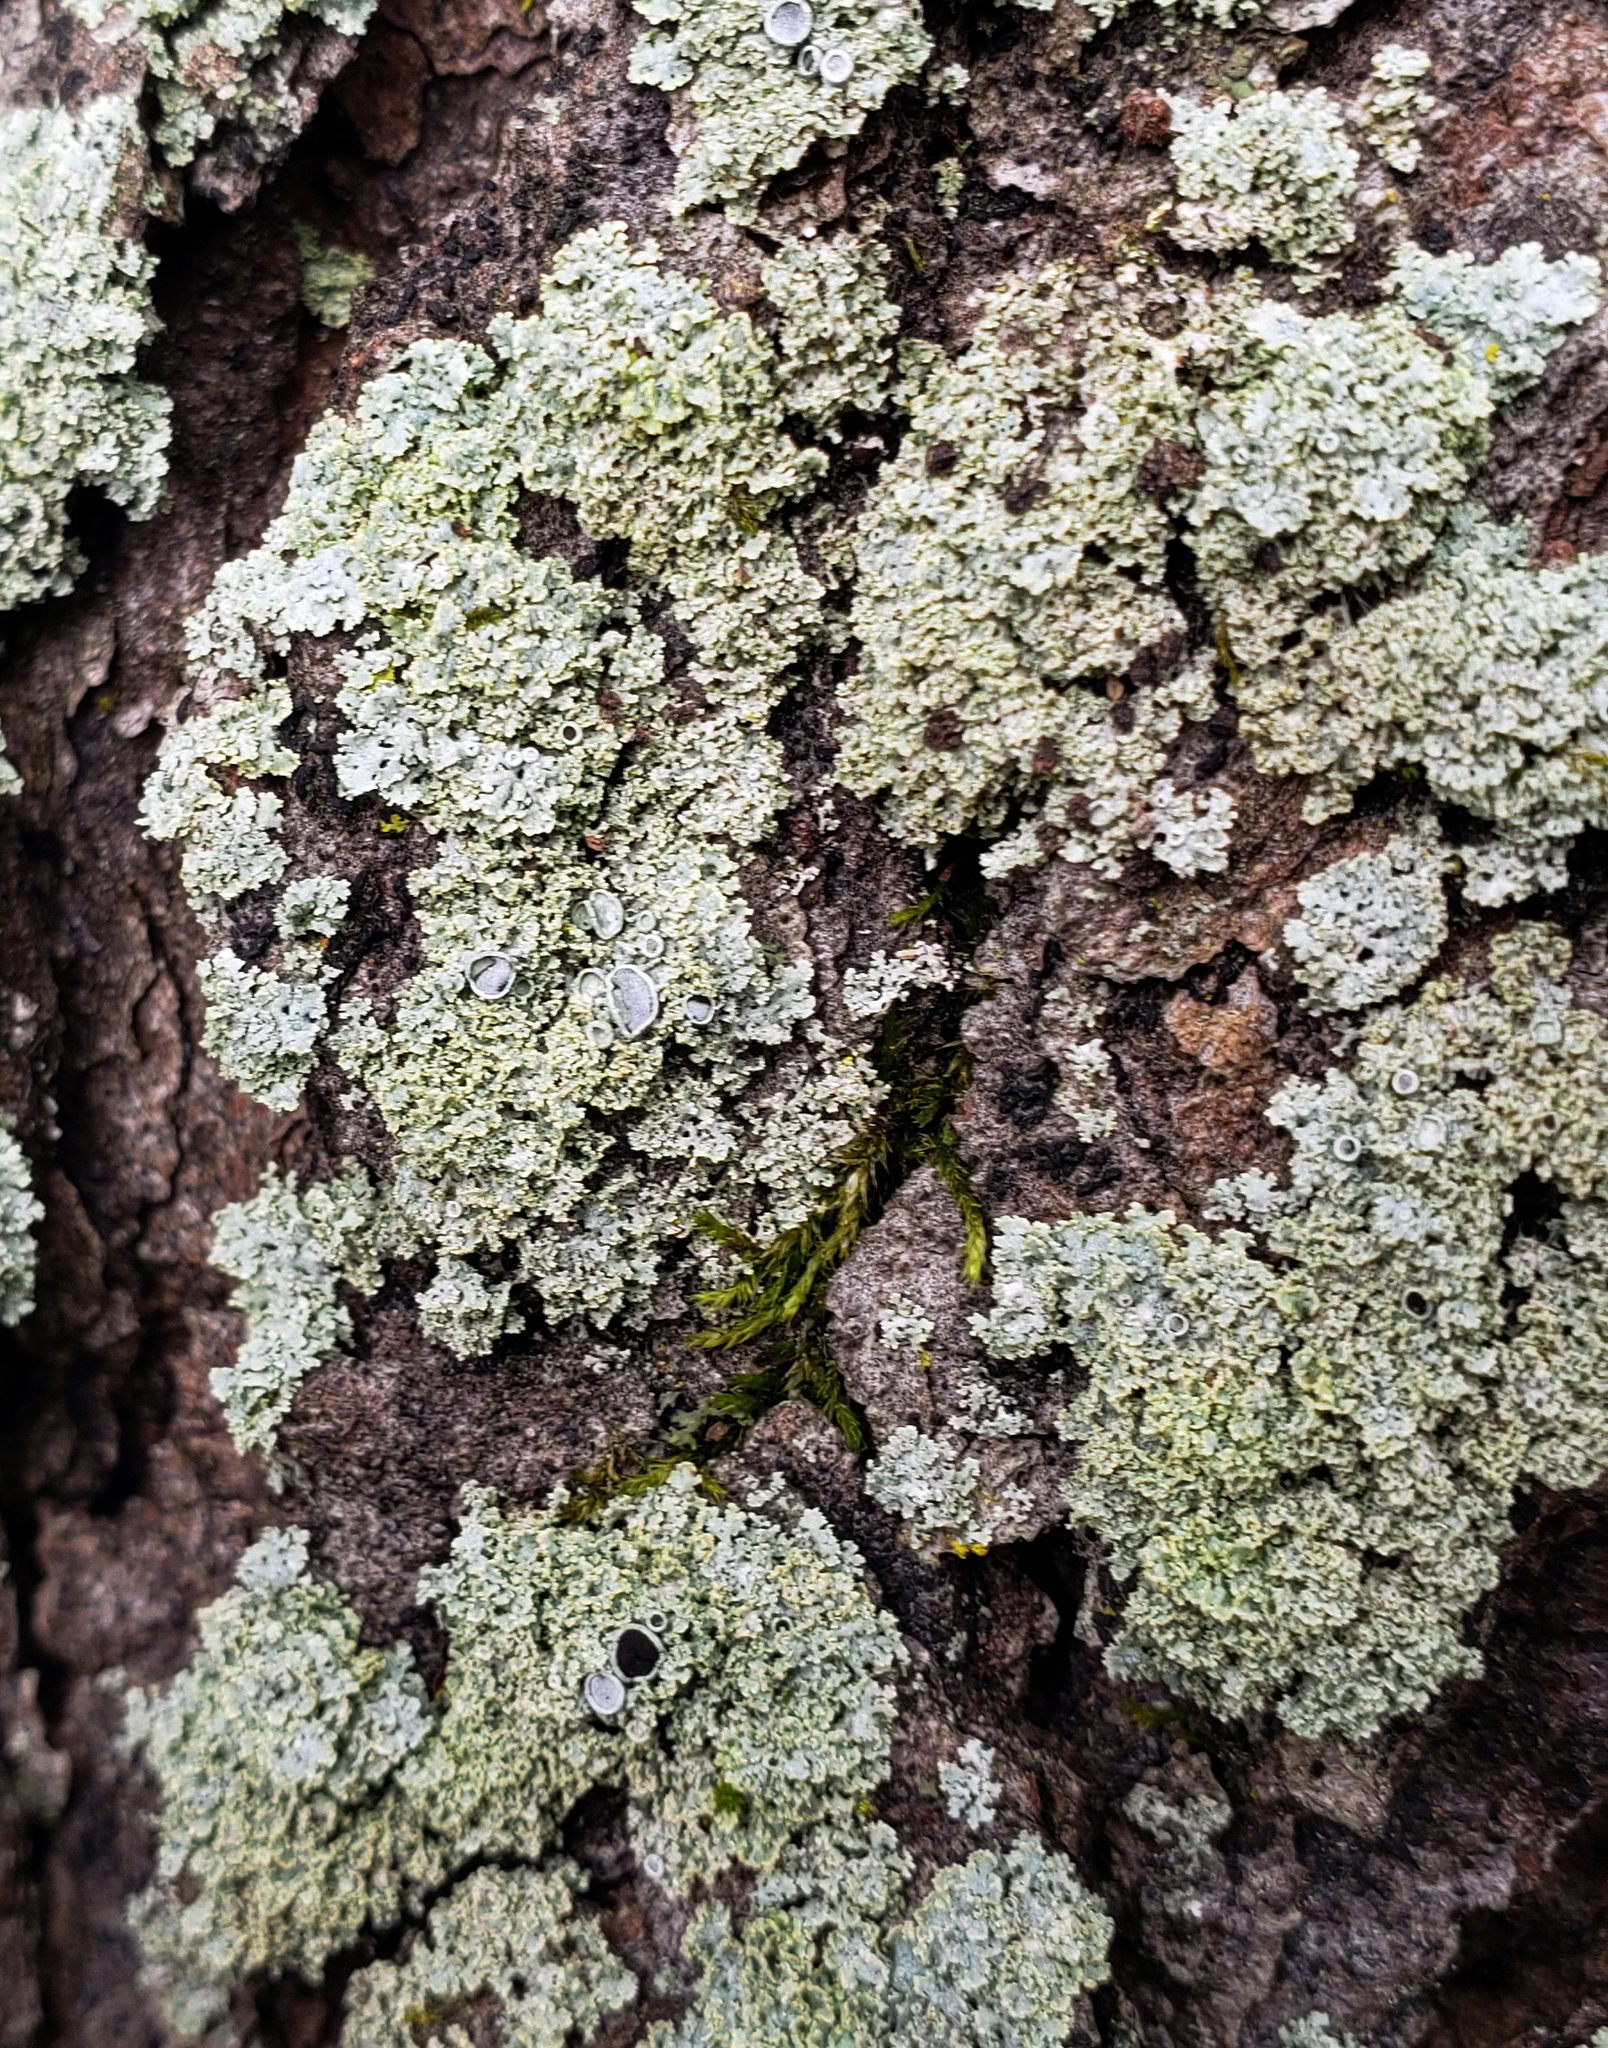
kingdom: Fungi
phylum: Ascomycota
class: Lecanoromycetes
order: Caliciales
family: Physciaceae
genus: Physcia
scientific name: Physcia millegrana
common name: Rosette lichen
